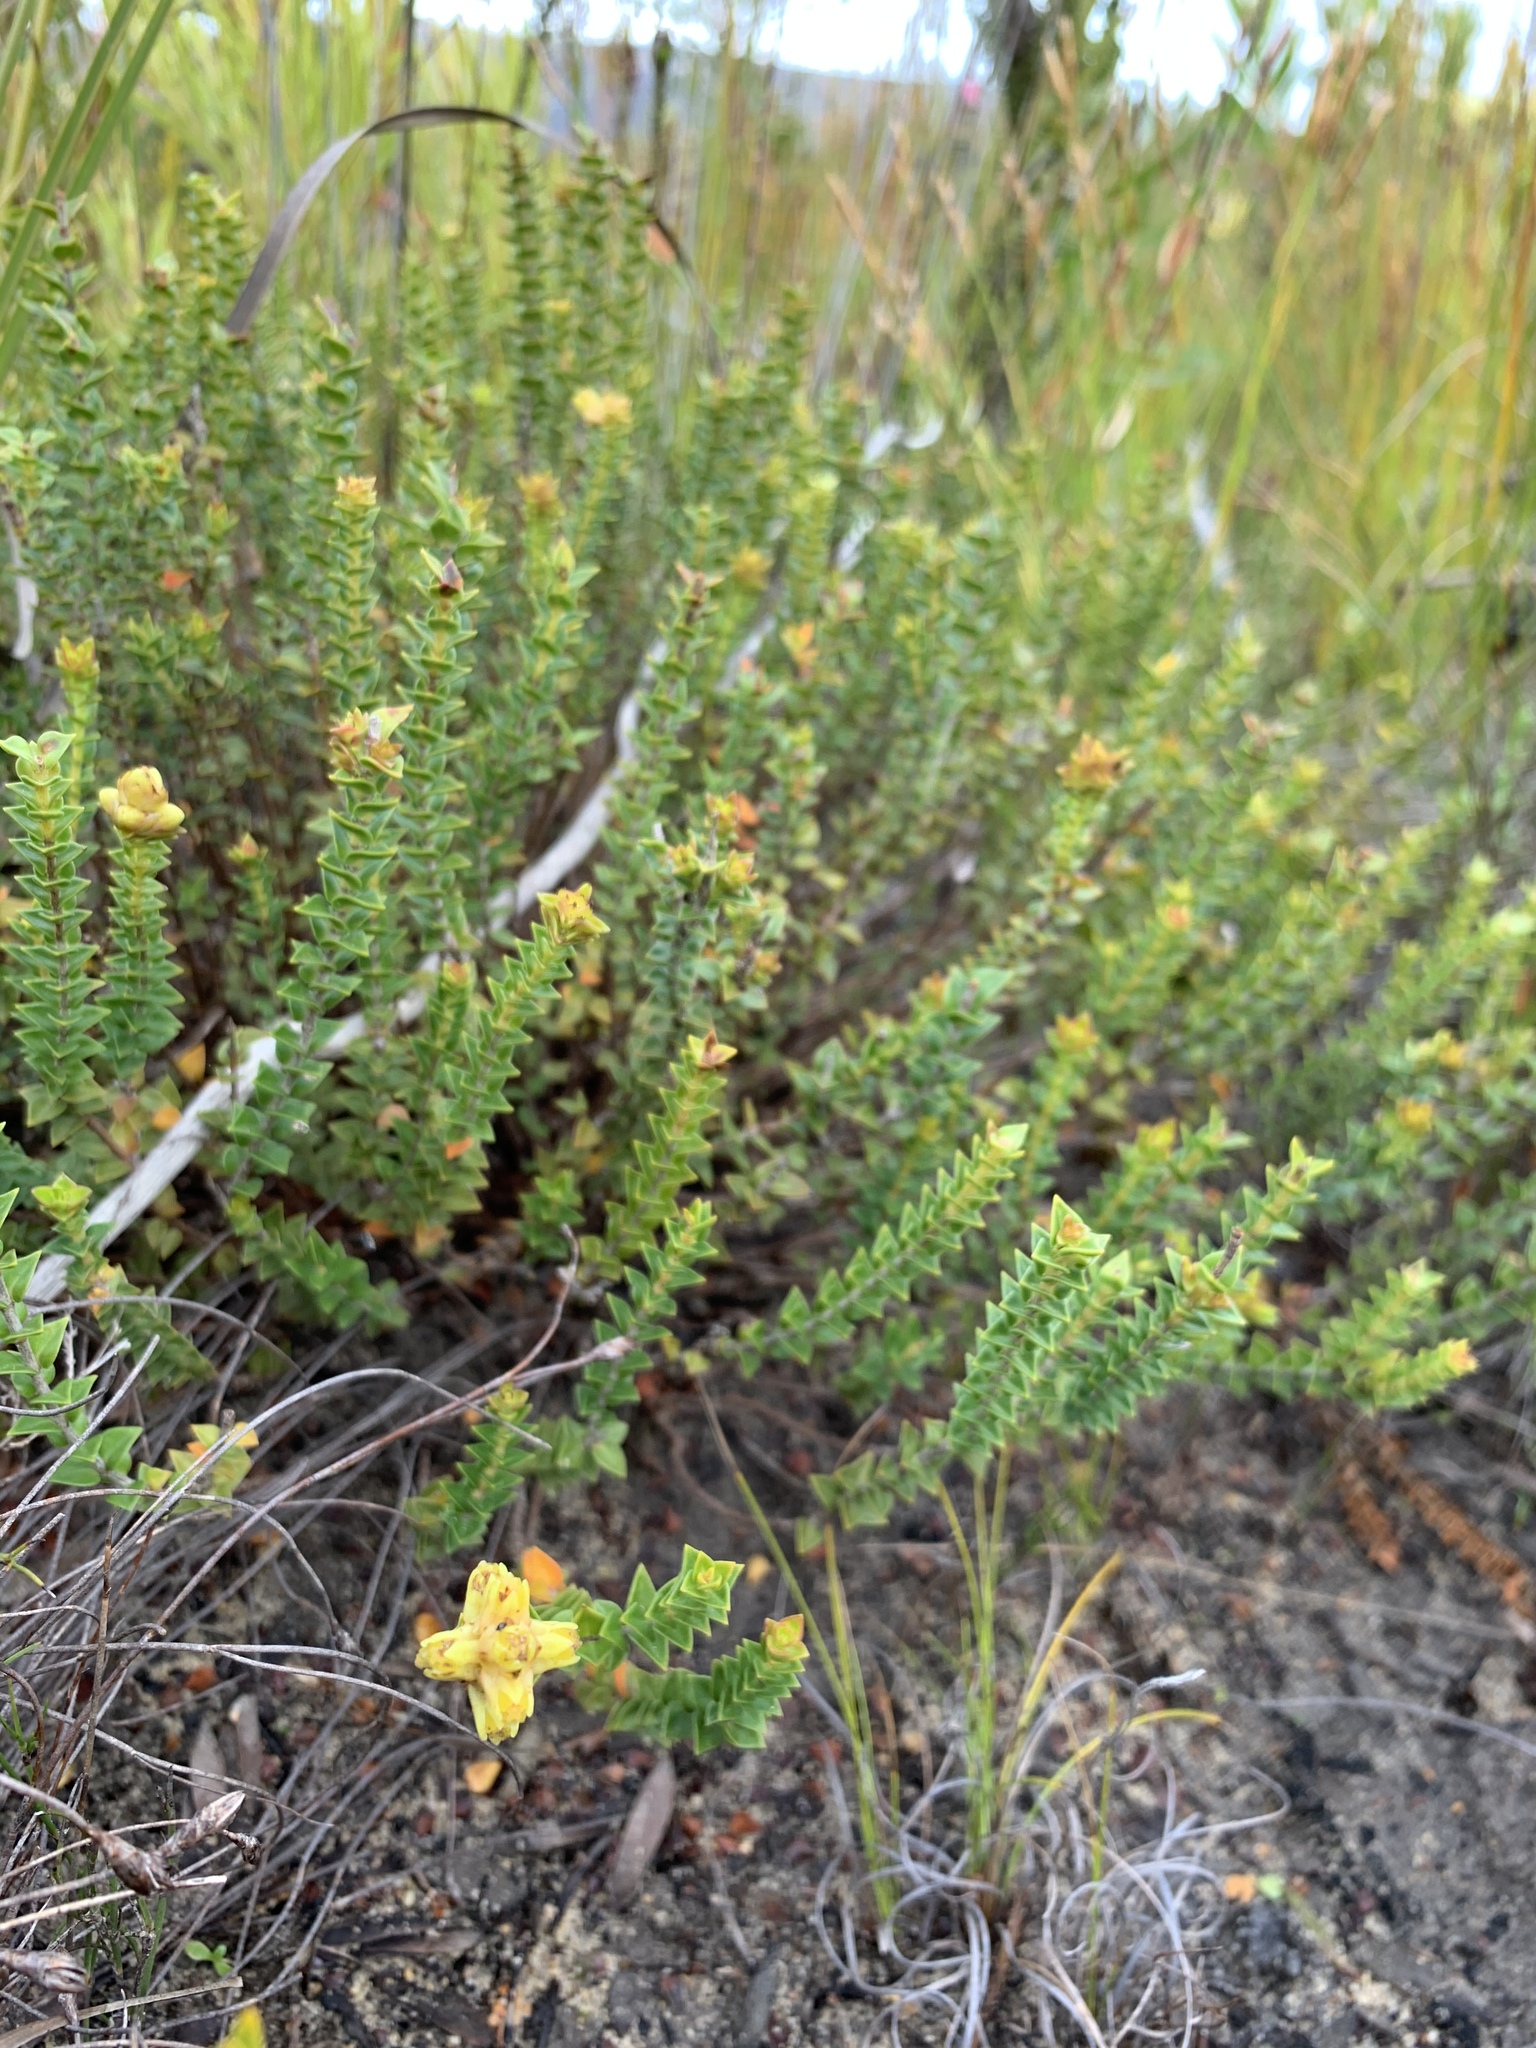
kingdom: Plantae
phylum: Tracheophyta
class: Magnoliopsida
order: Myrtales
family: Penaeaceae
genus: Penaea
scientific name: Penaea mucronata
